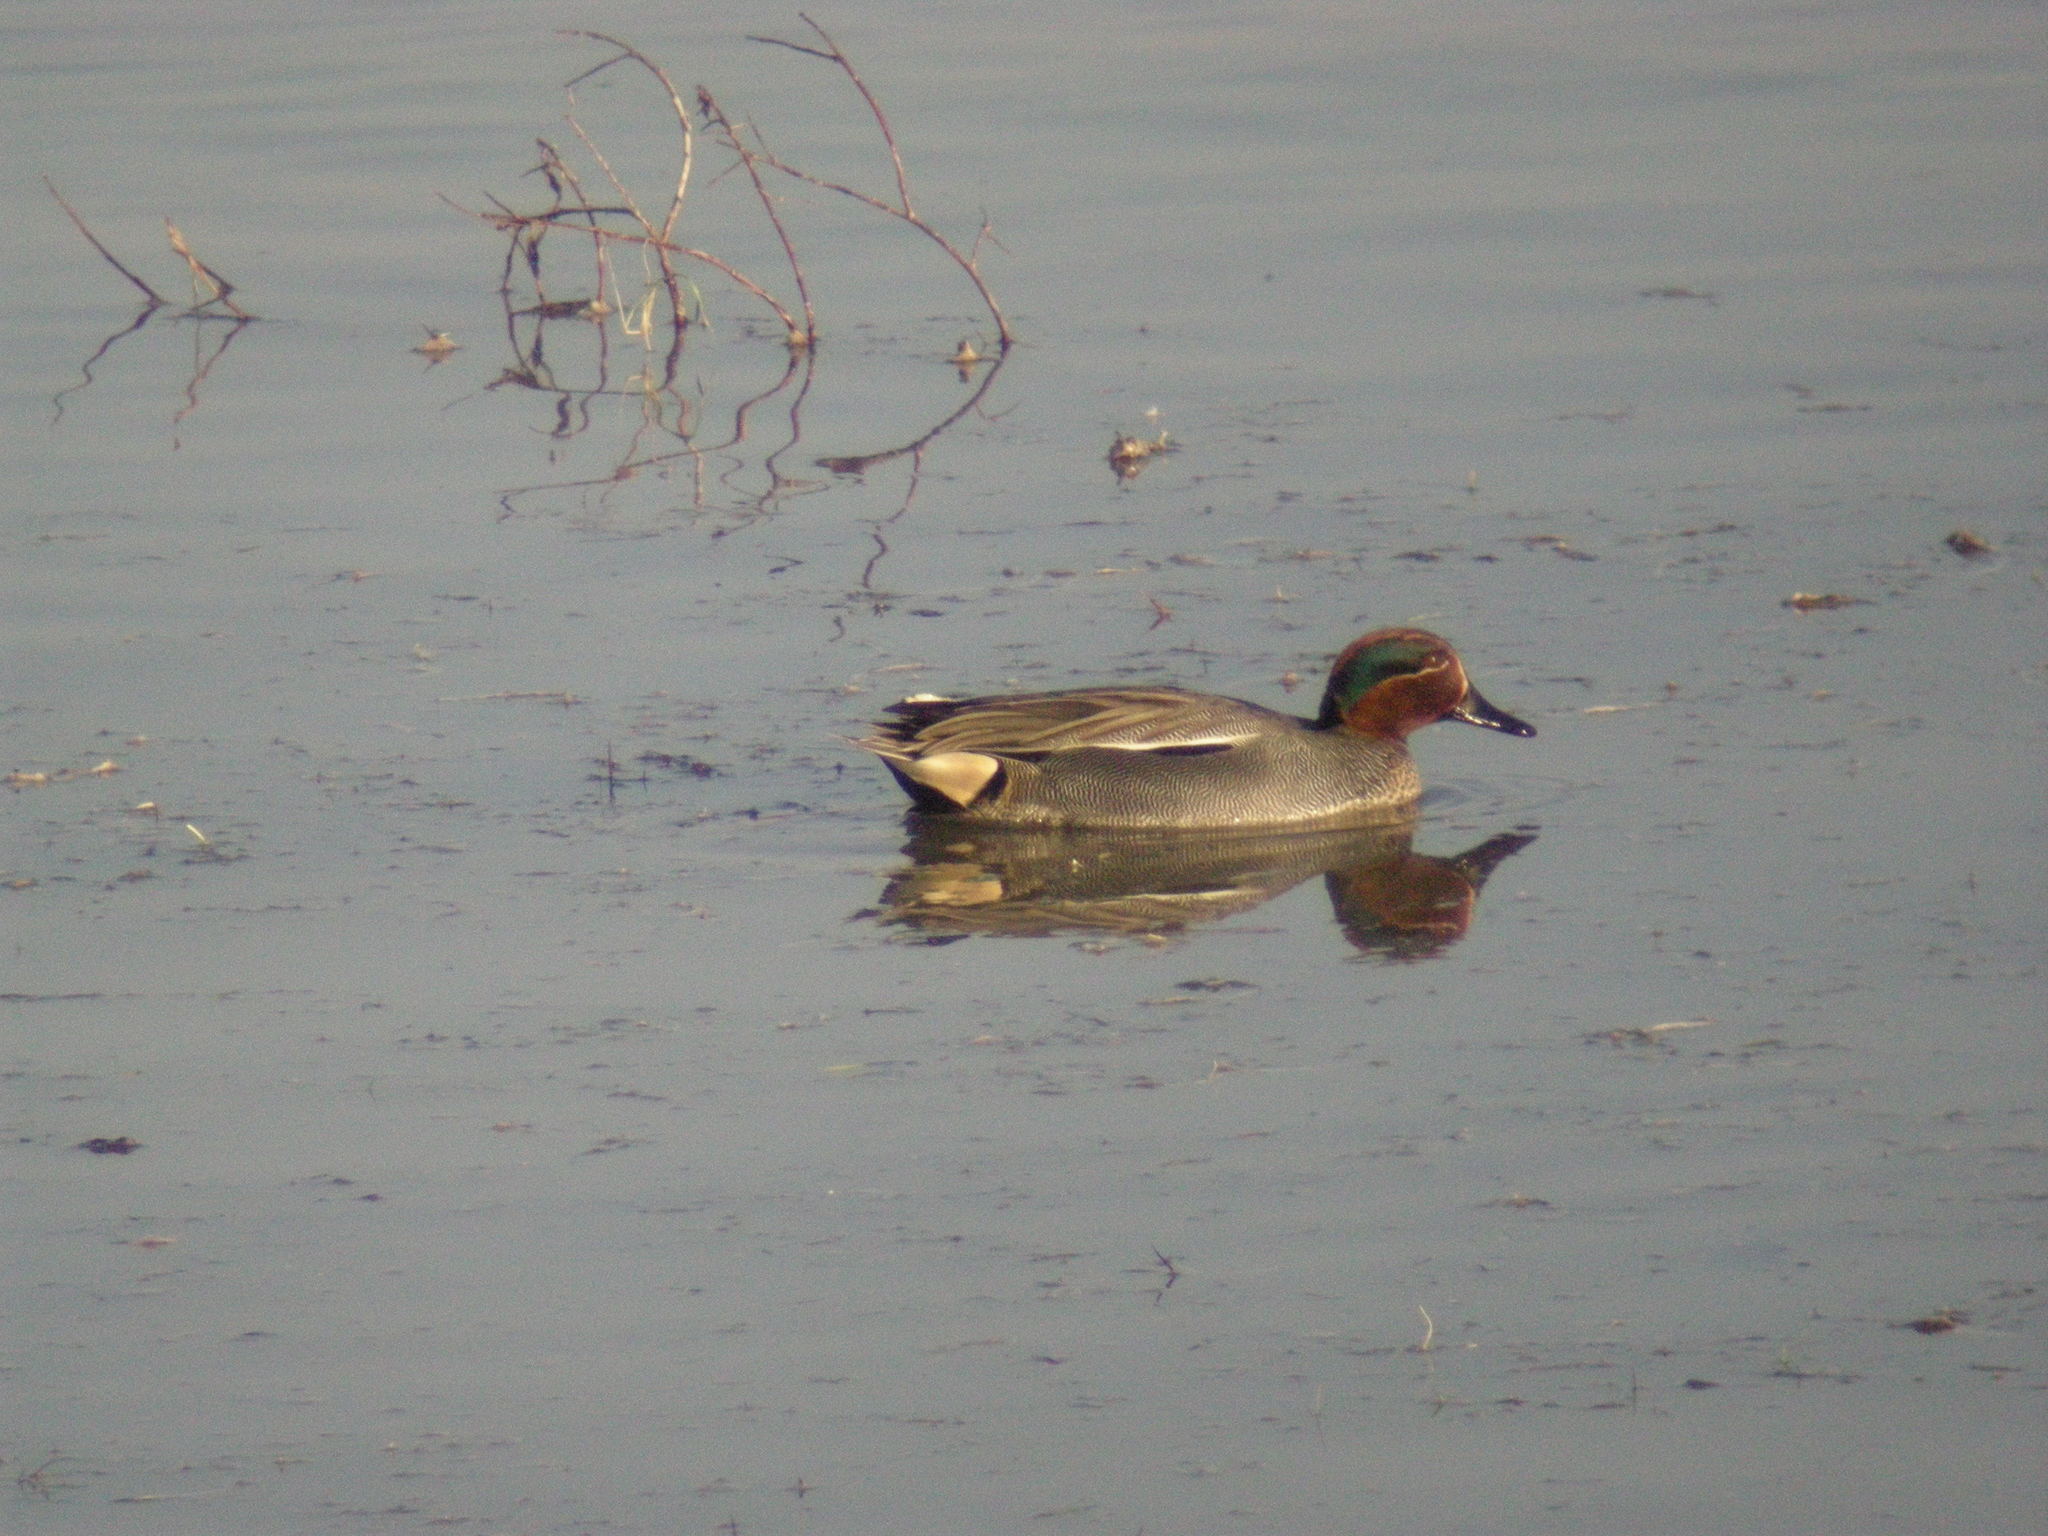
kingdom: Animalia
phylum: Chordata
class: Aves
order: Anseriformes
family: Anatidae
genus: Anas
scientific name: Anas crecca
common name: Eurasian teal
